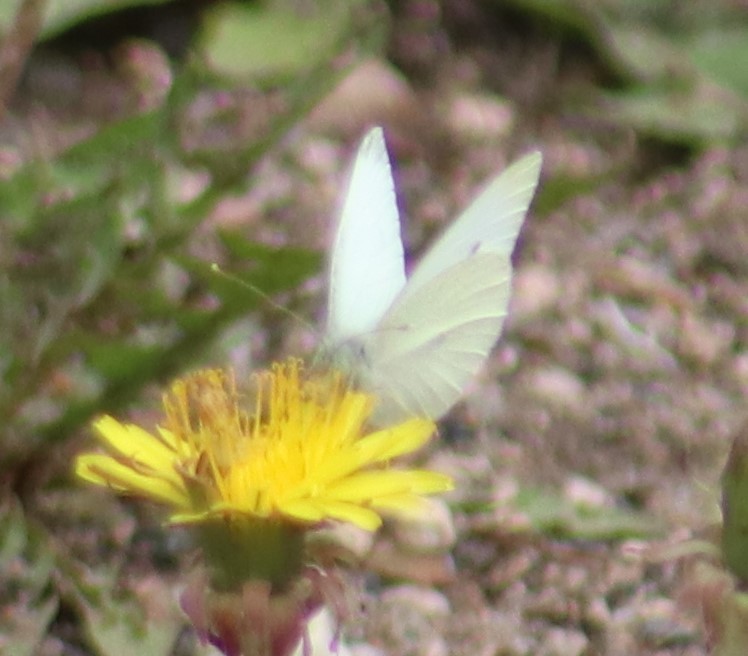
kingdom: Animalia
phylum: Arthropoda
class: Insecta
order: Lepidoptera
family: Pieridae
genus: Pieris
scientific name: Pieris rapae
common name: Small white
